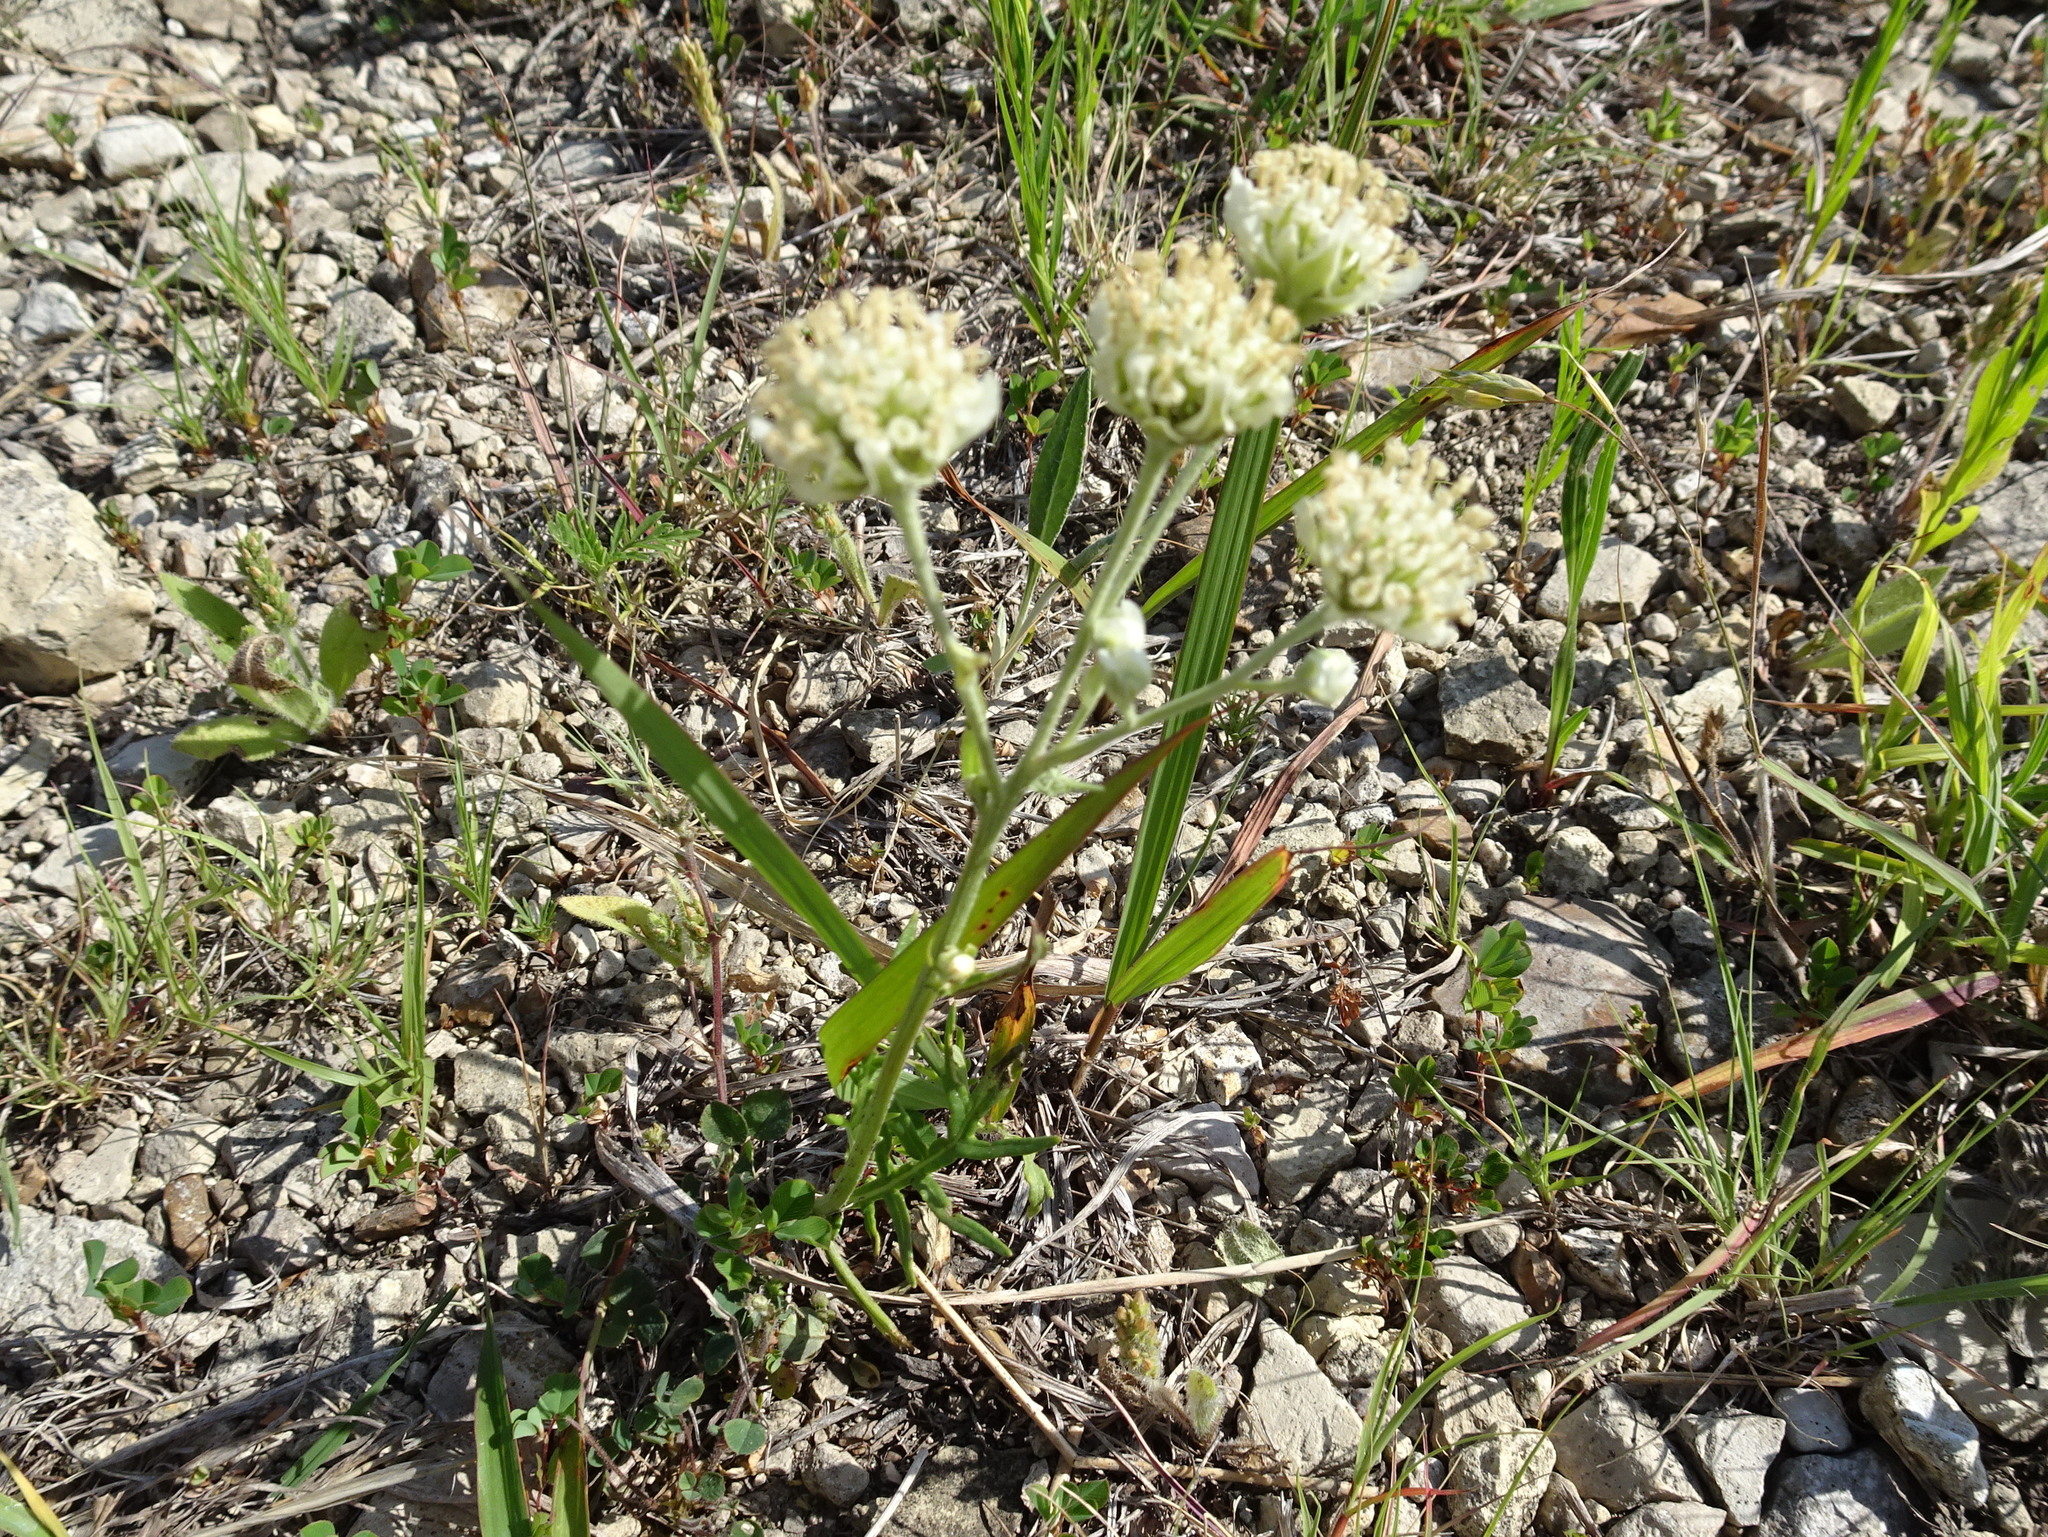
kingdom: Plantae
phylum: Tracheophyta
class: Magnoliopsida
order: Asterales
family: Asteraceae
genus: Hymenopappus
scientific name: Hymenopappus scabiosaeus
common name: Carolina woollywhite
